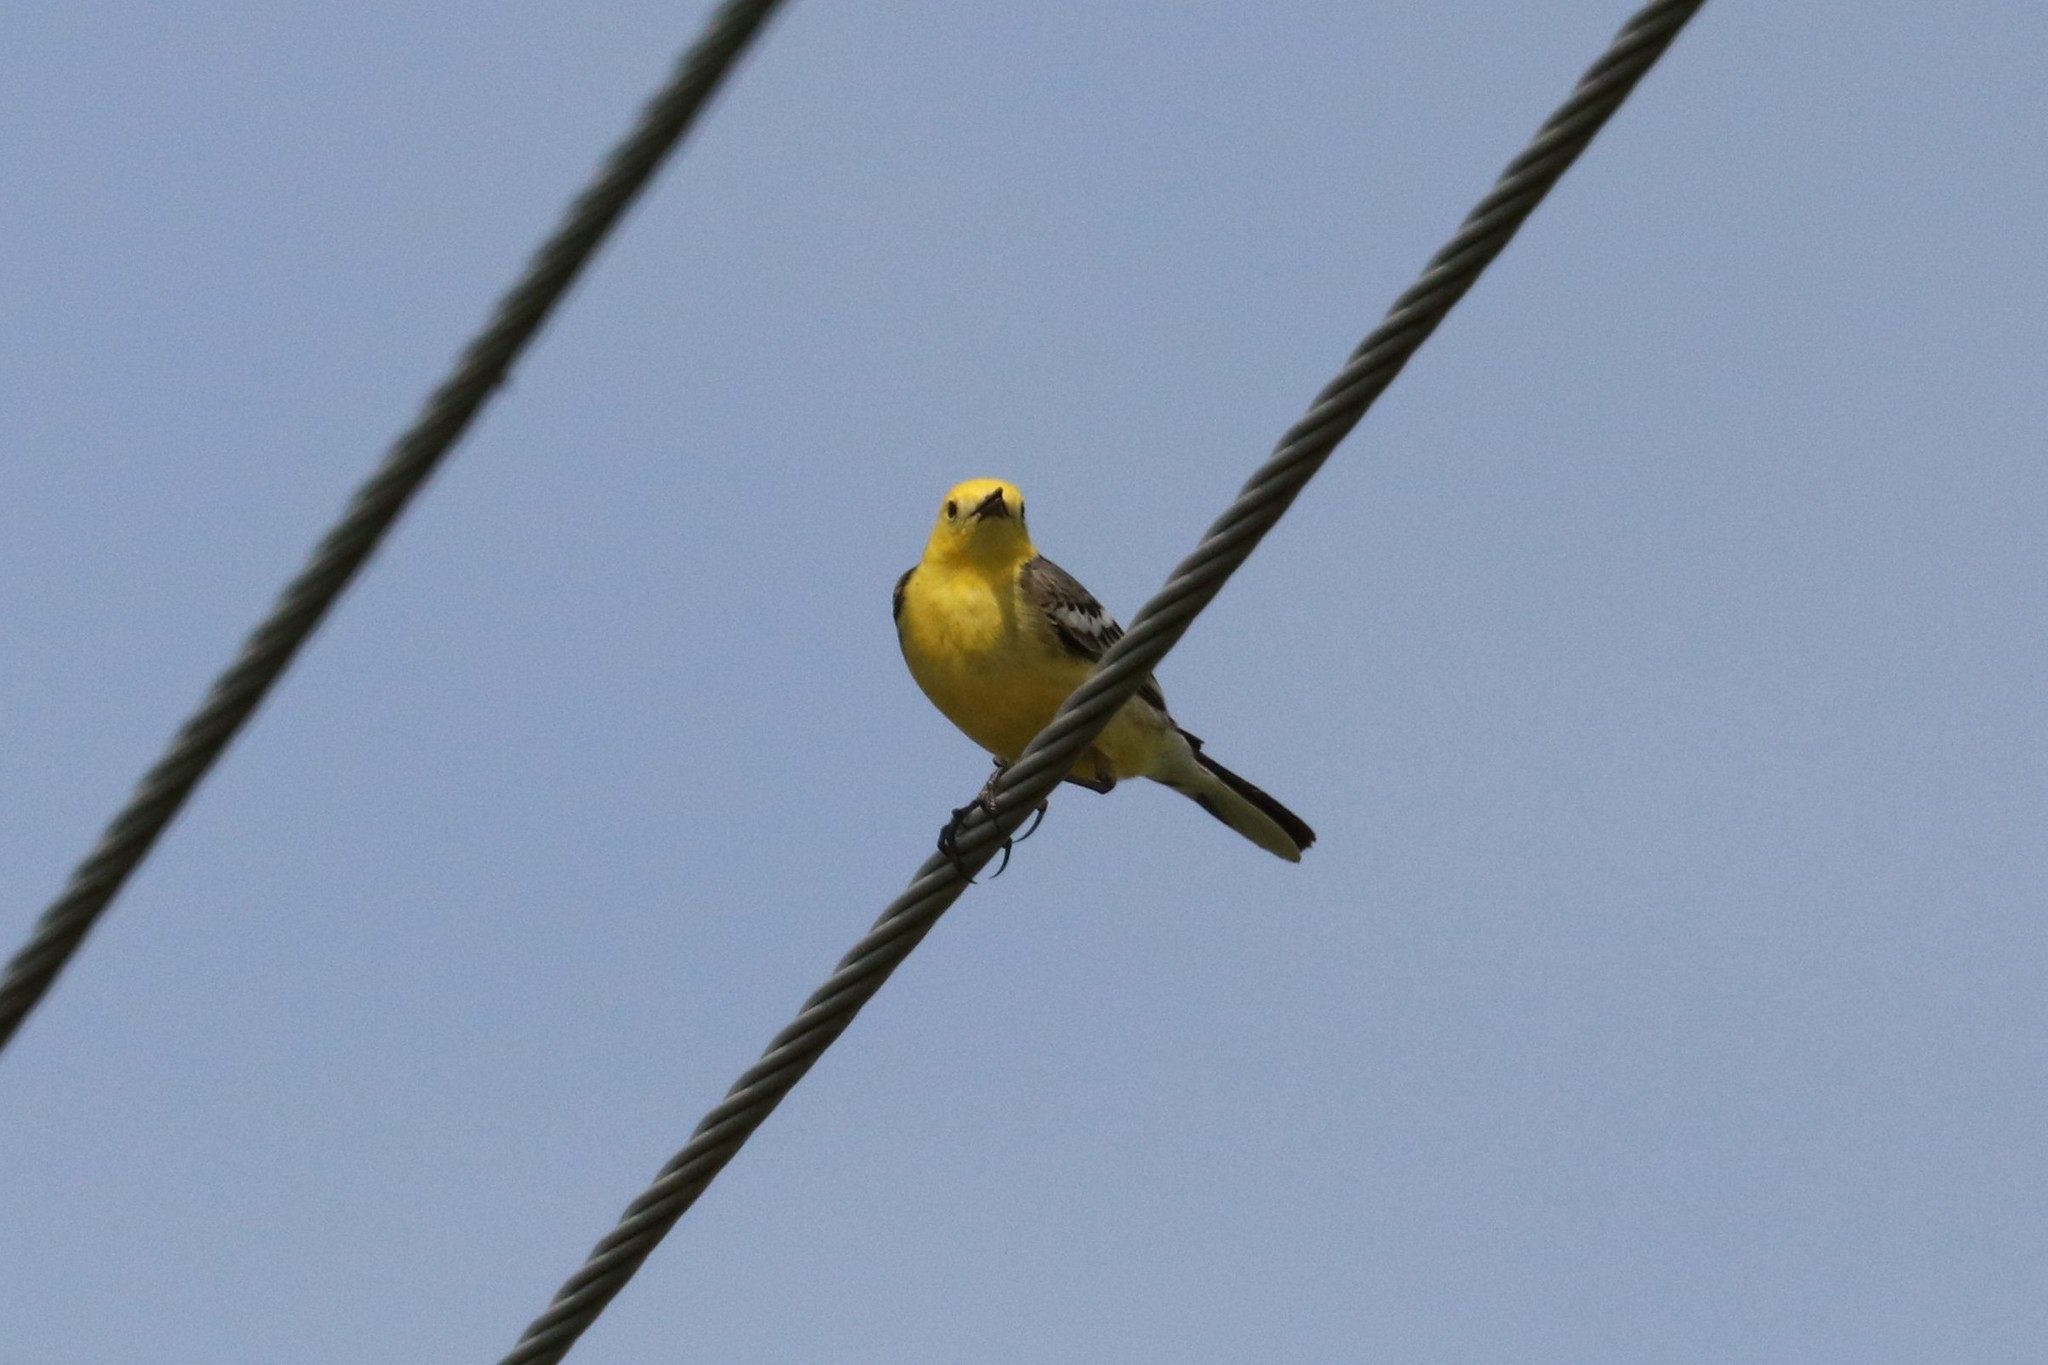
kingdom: Animalia
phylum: Chordata
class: Aves
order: Passeriformes
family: Motacillidae
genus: Motacilla
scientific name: Motacilla citreola
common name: Citrine wagtail
